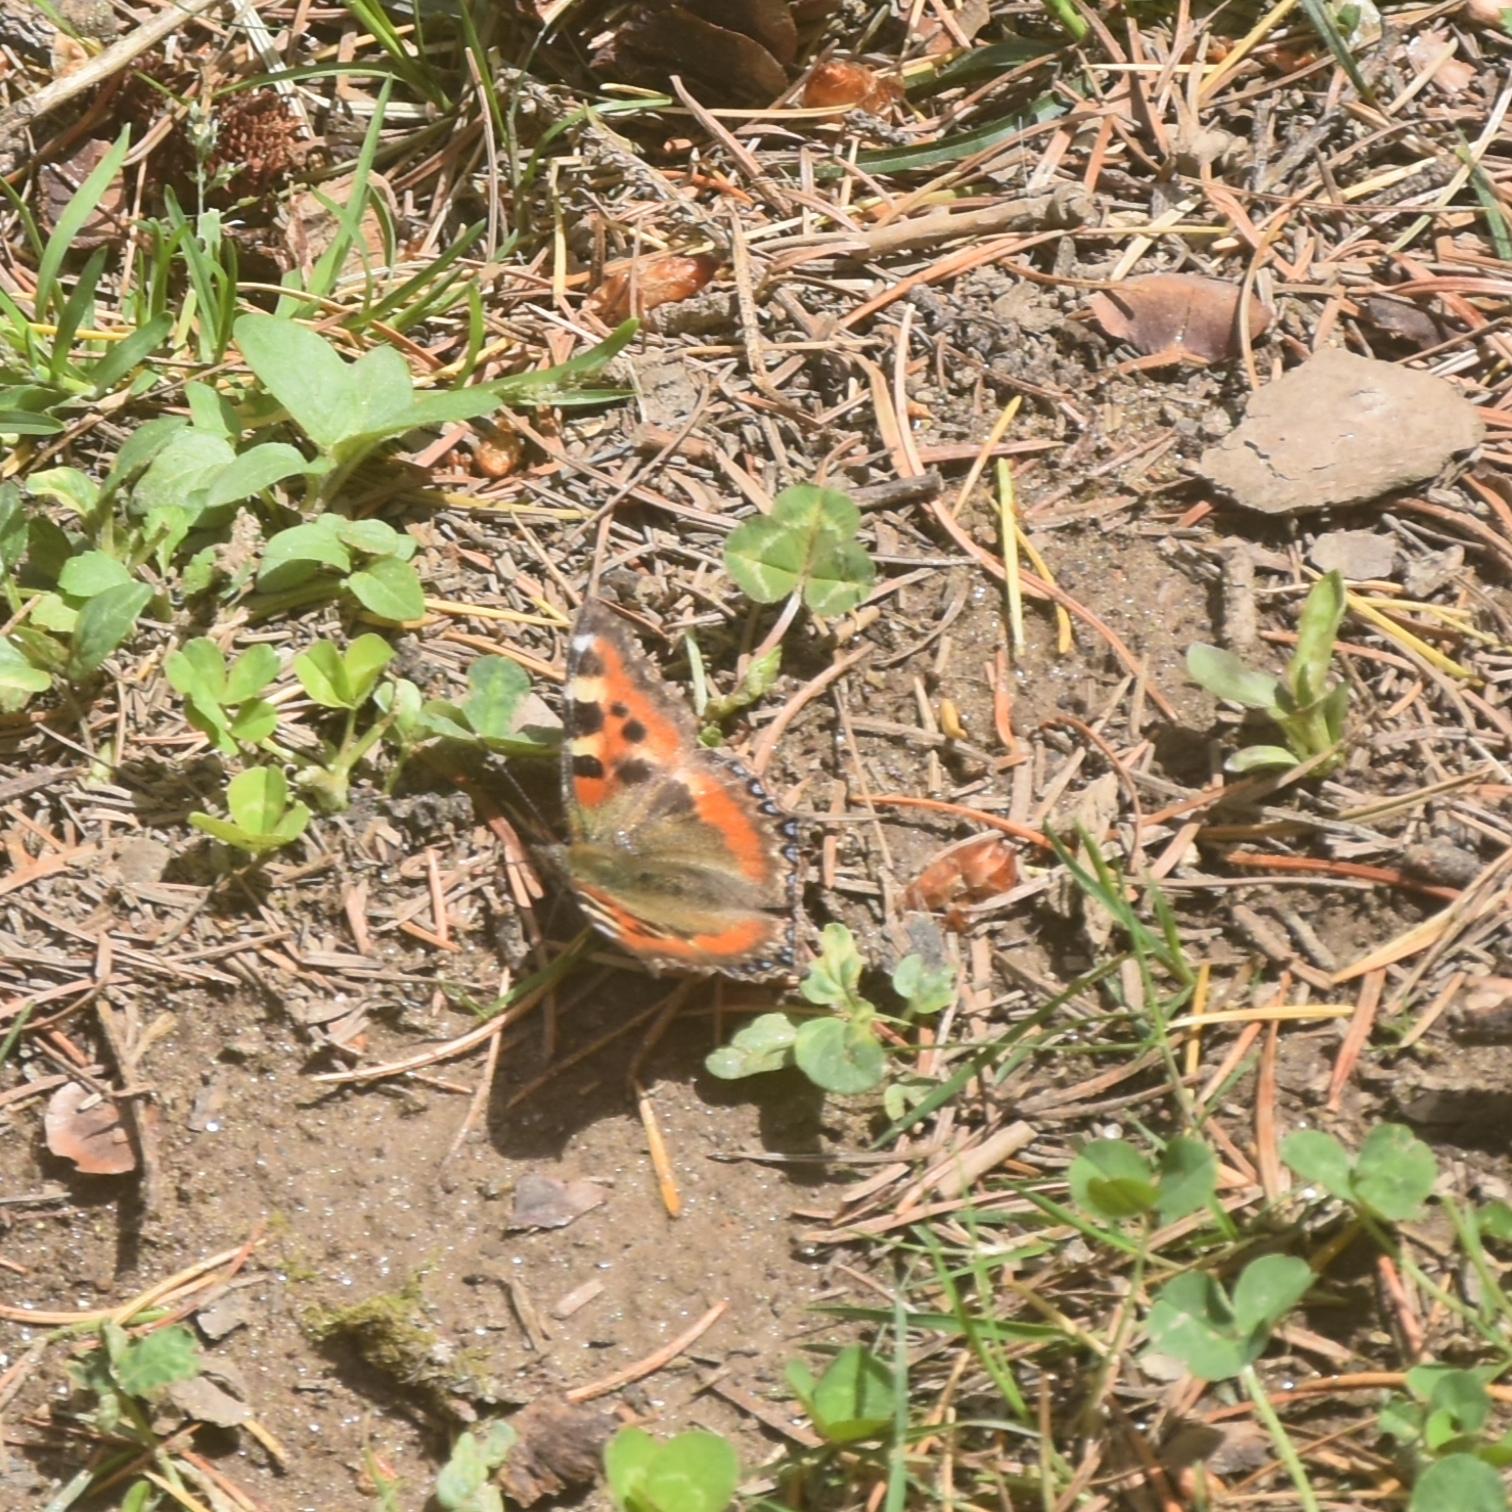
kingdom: Animalia
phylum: Arthropoda
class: Insecta
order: Lepidoptera
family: Nymphalidae
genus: Aglais
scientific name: Aglais caschmirensis
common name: Indian tortoiseshell
